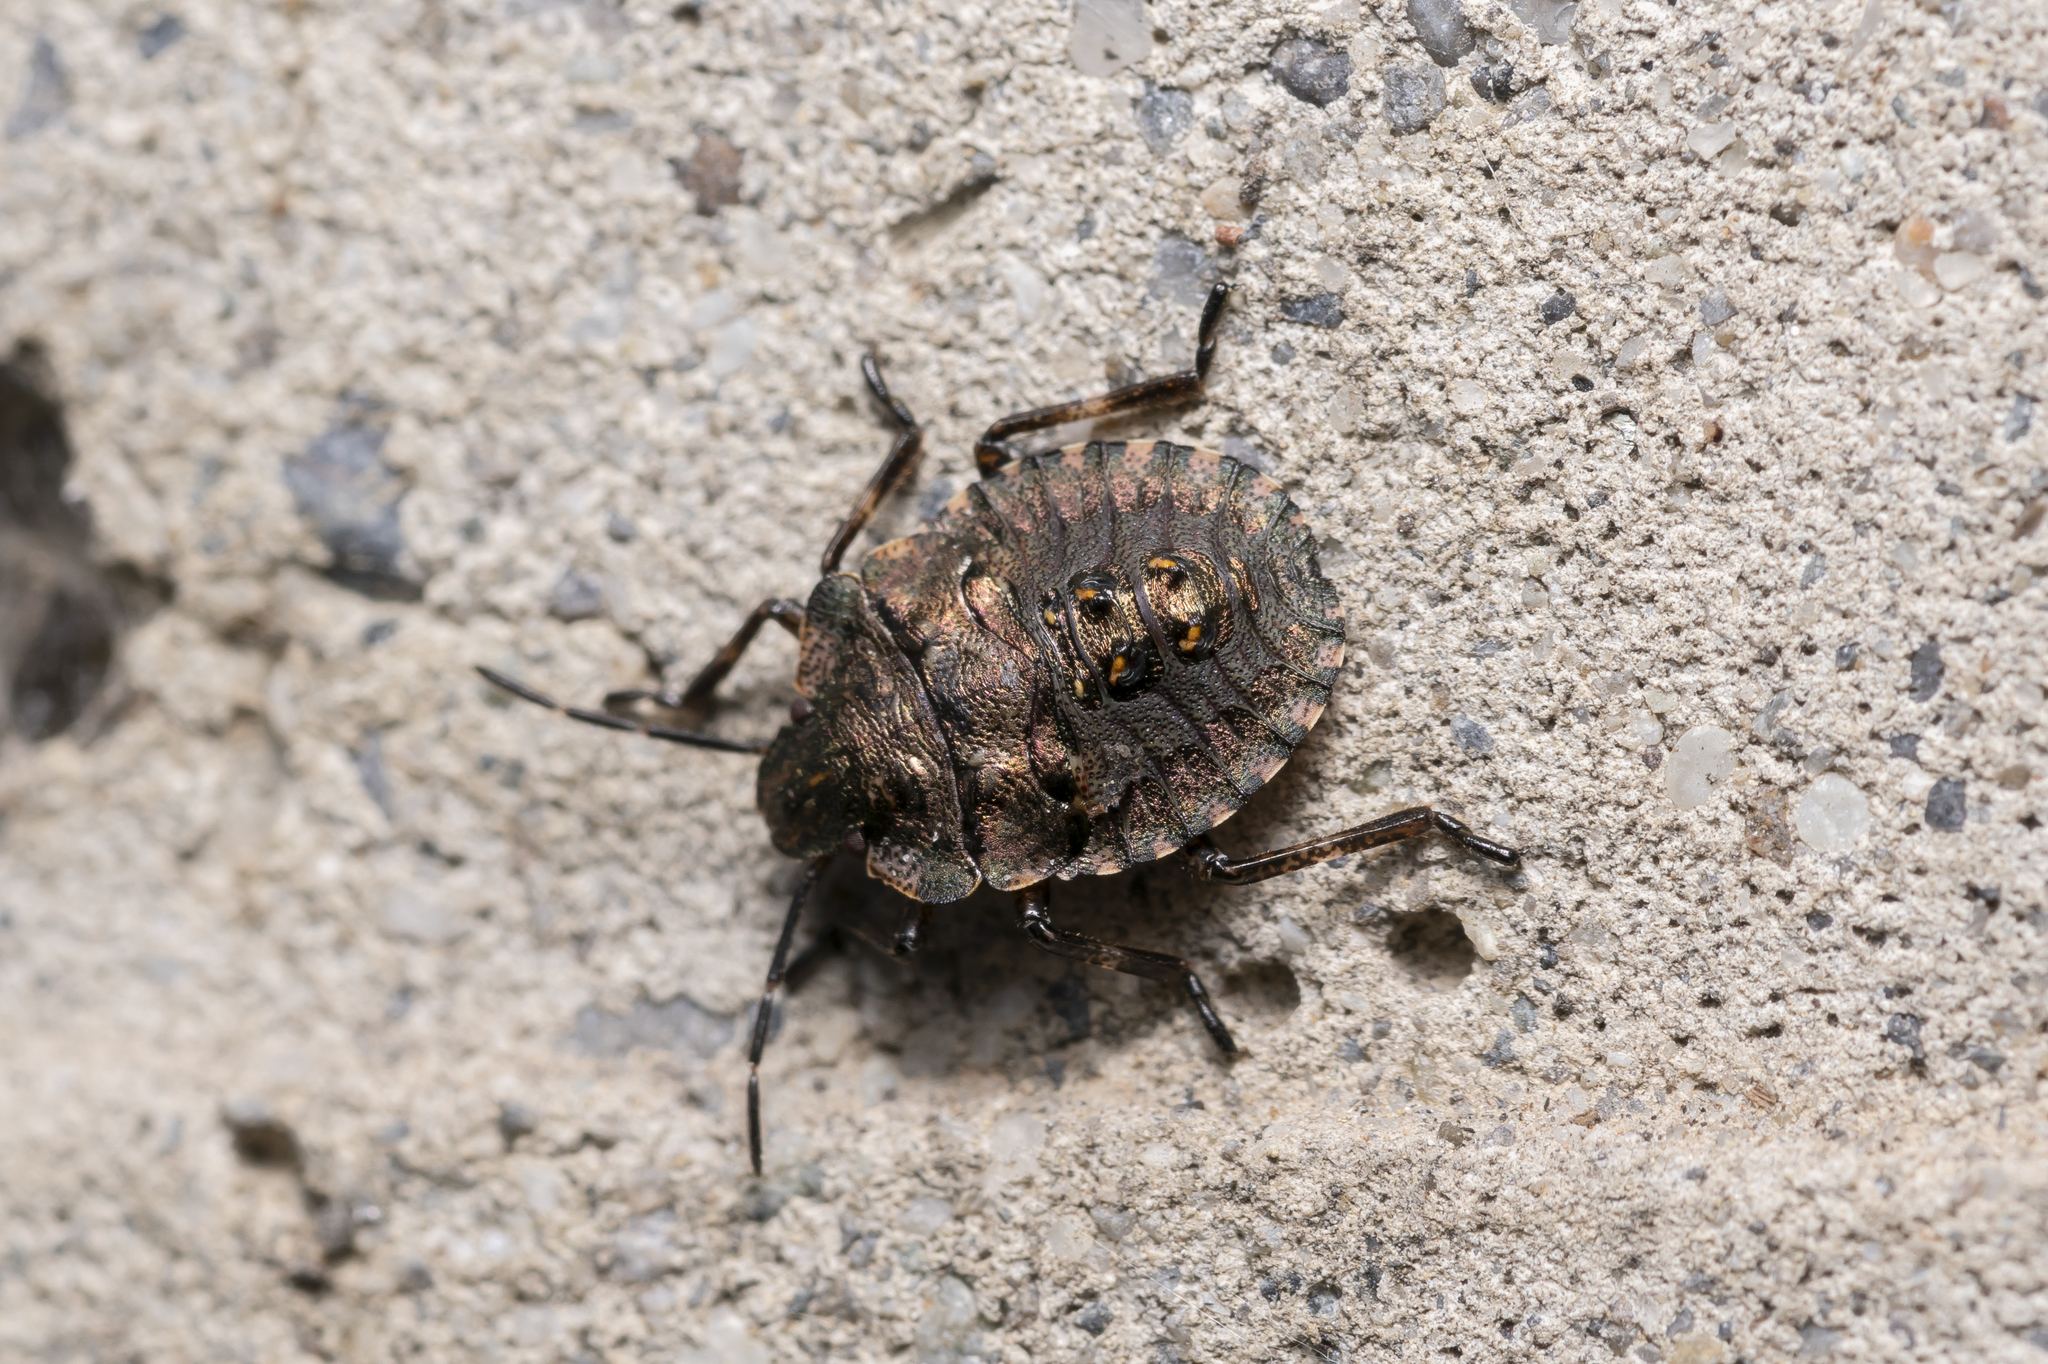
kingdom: Animalia
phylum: Arthropoda
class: Insecta
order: Hemiptera
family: Pentatomidae
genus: Pentatoma
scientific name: Pentatoma rufipes
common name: Forest bug
